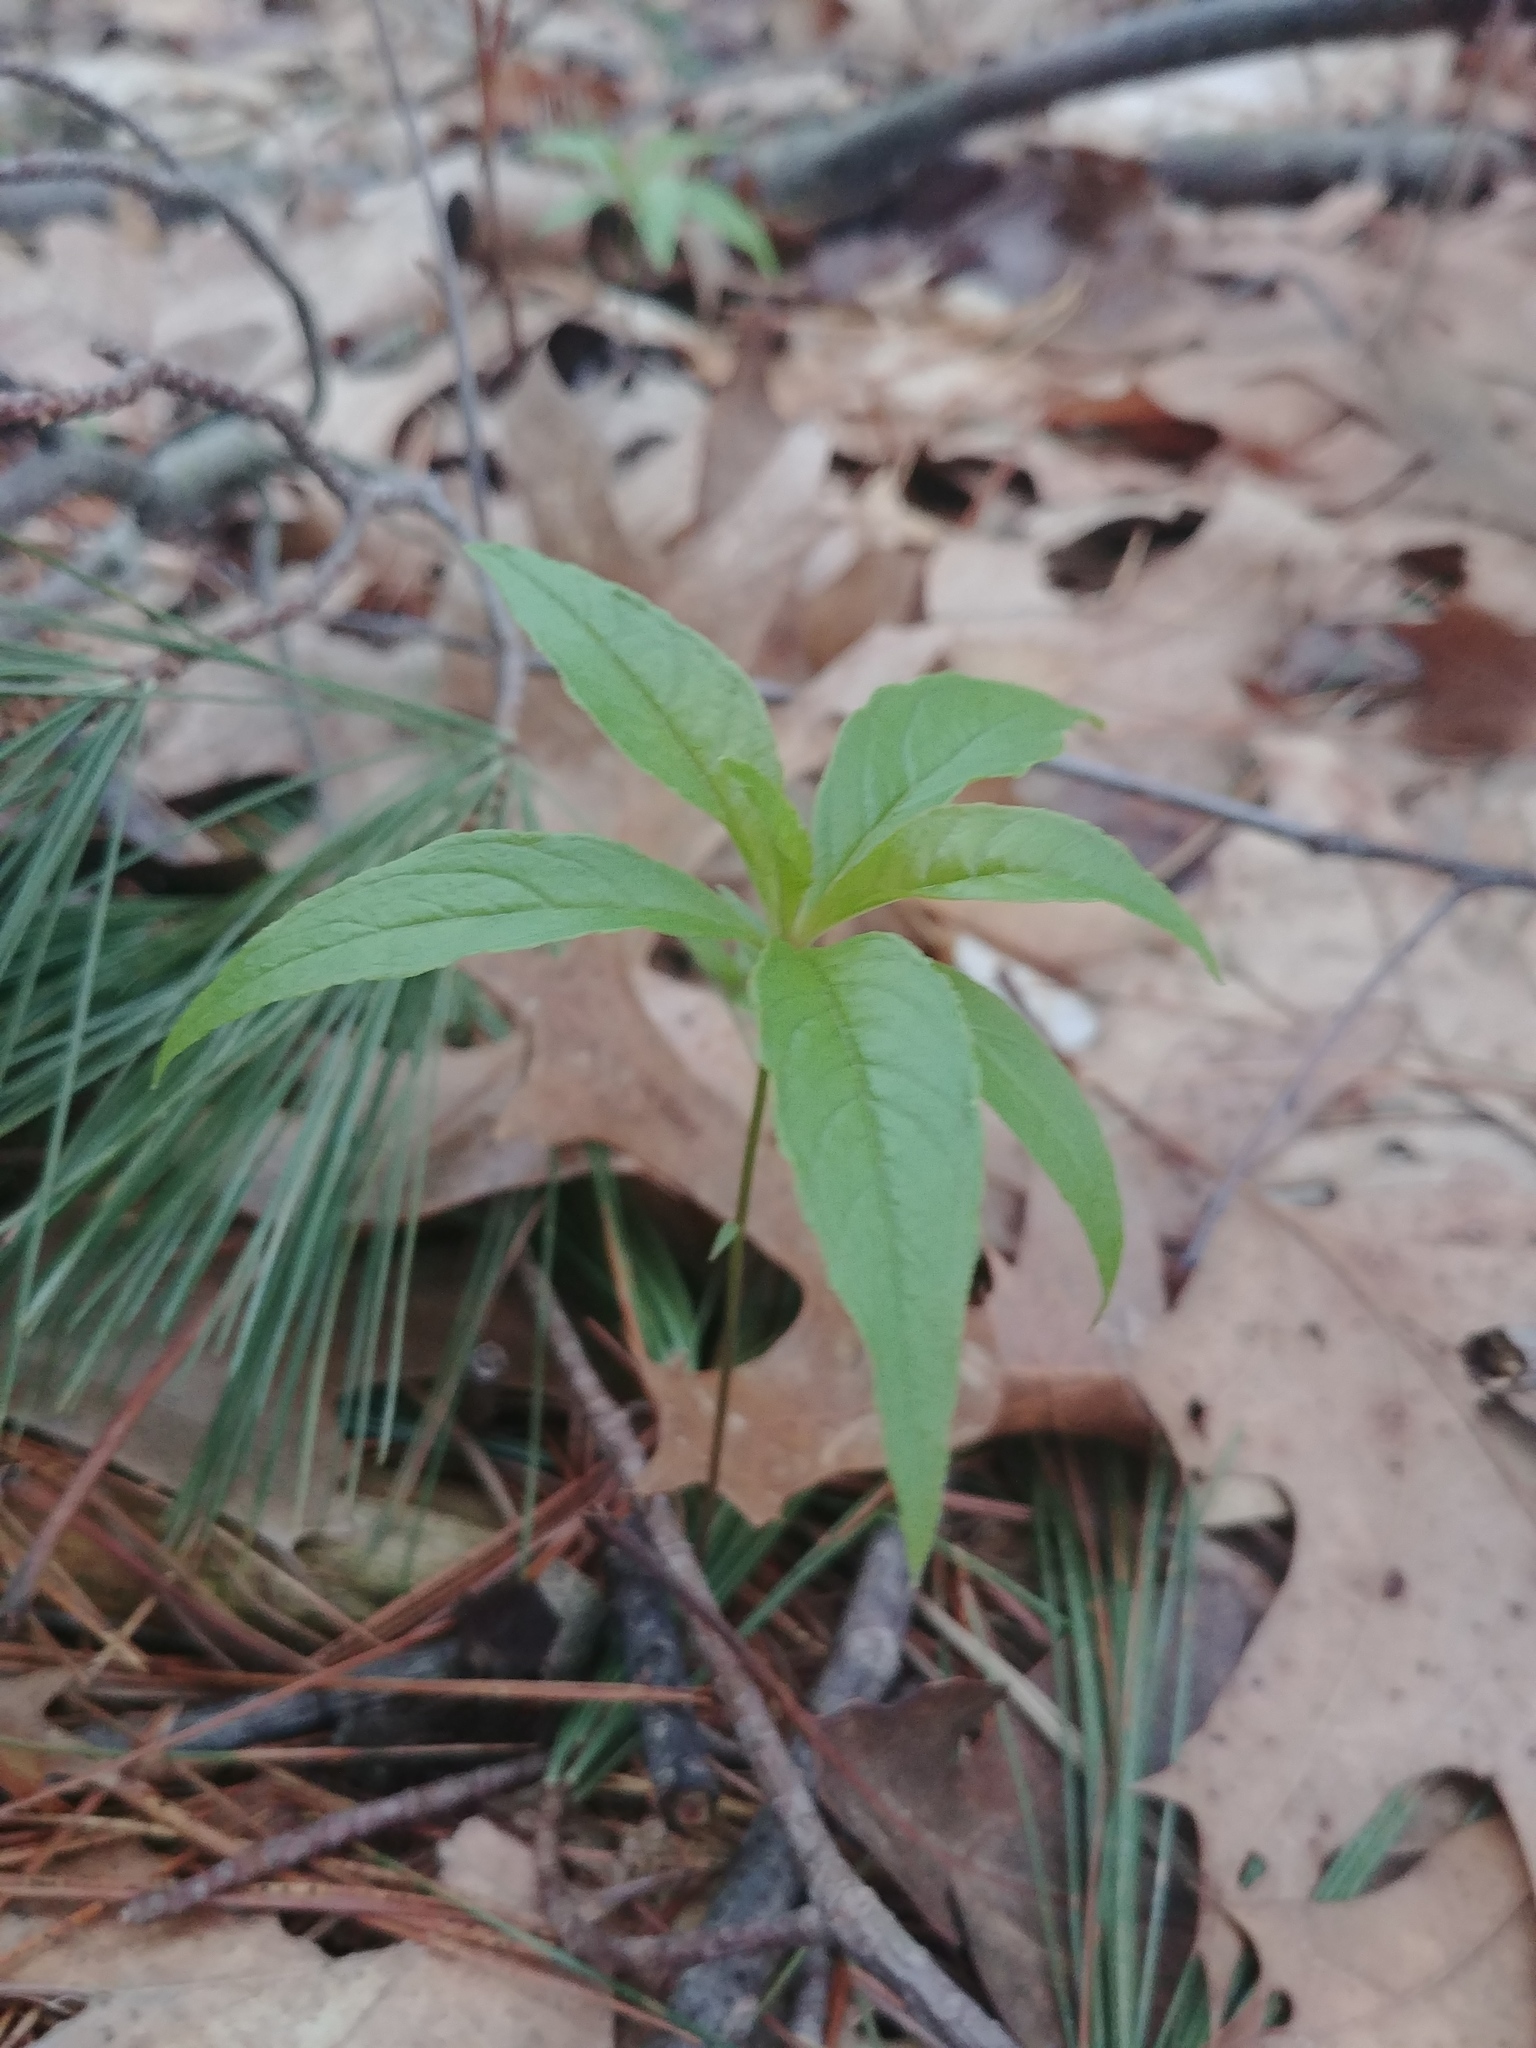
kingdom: Plantae
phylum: Tracheophyta
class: Magnoliopsida
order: Ericales
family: Primulaceae
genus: Lysimachia
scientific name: Lysimachia borealis
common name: American starflower
